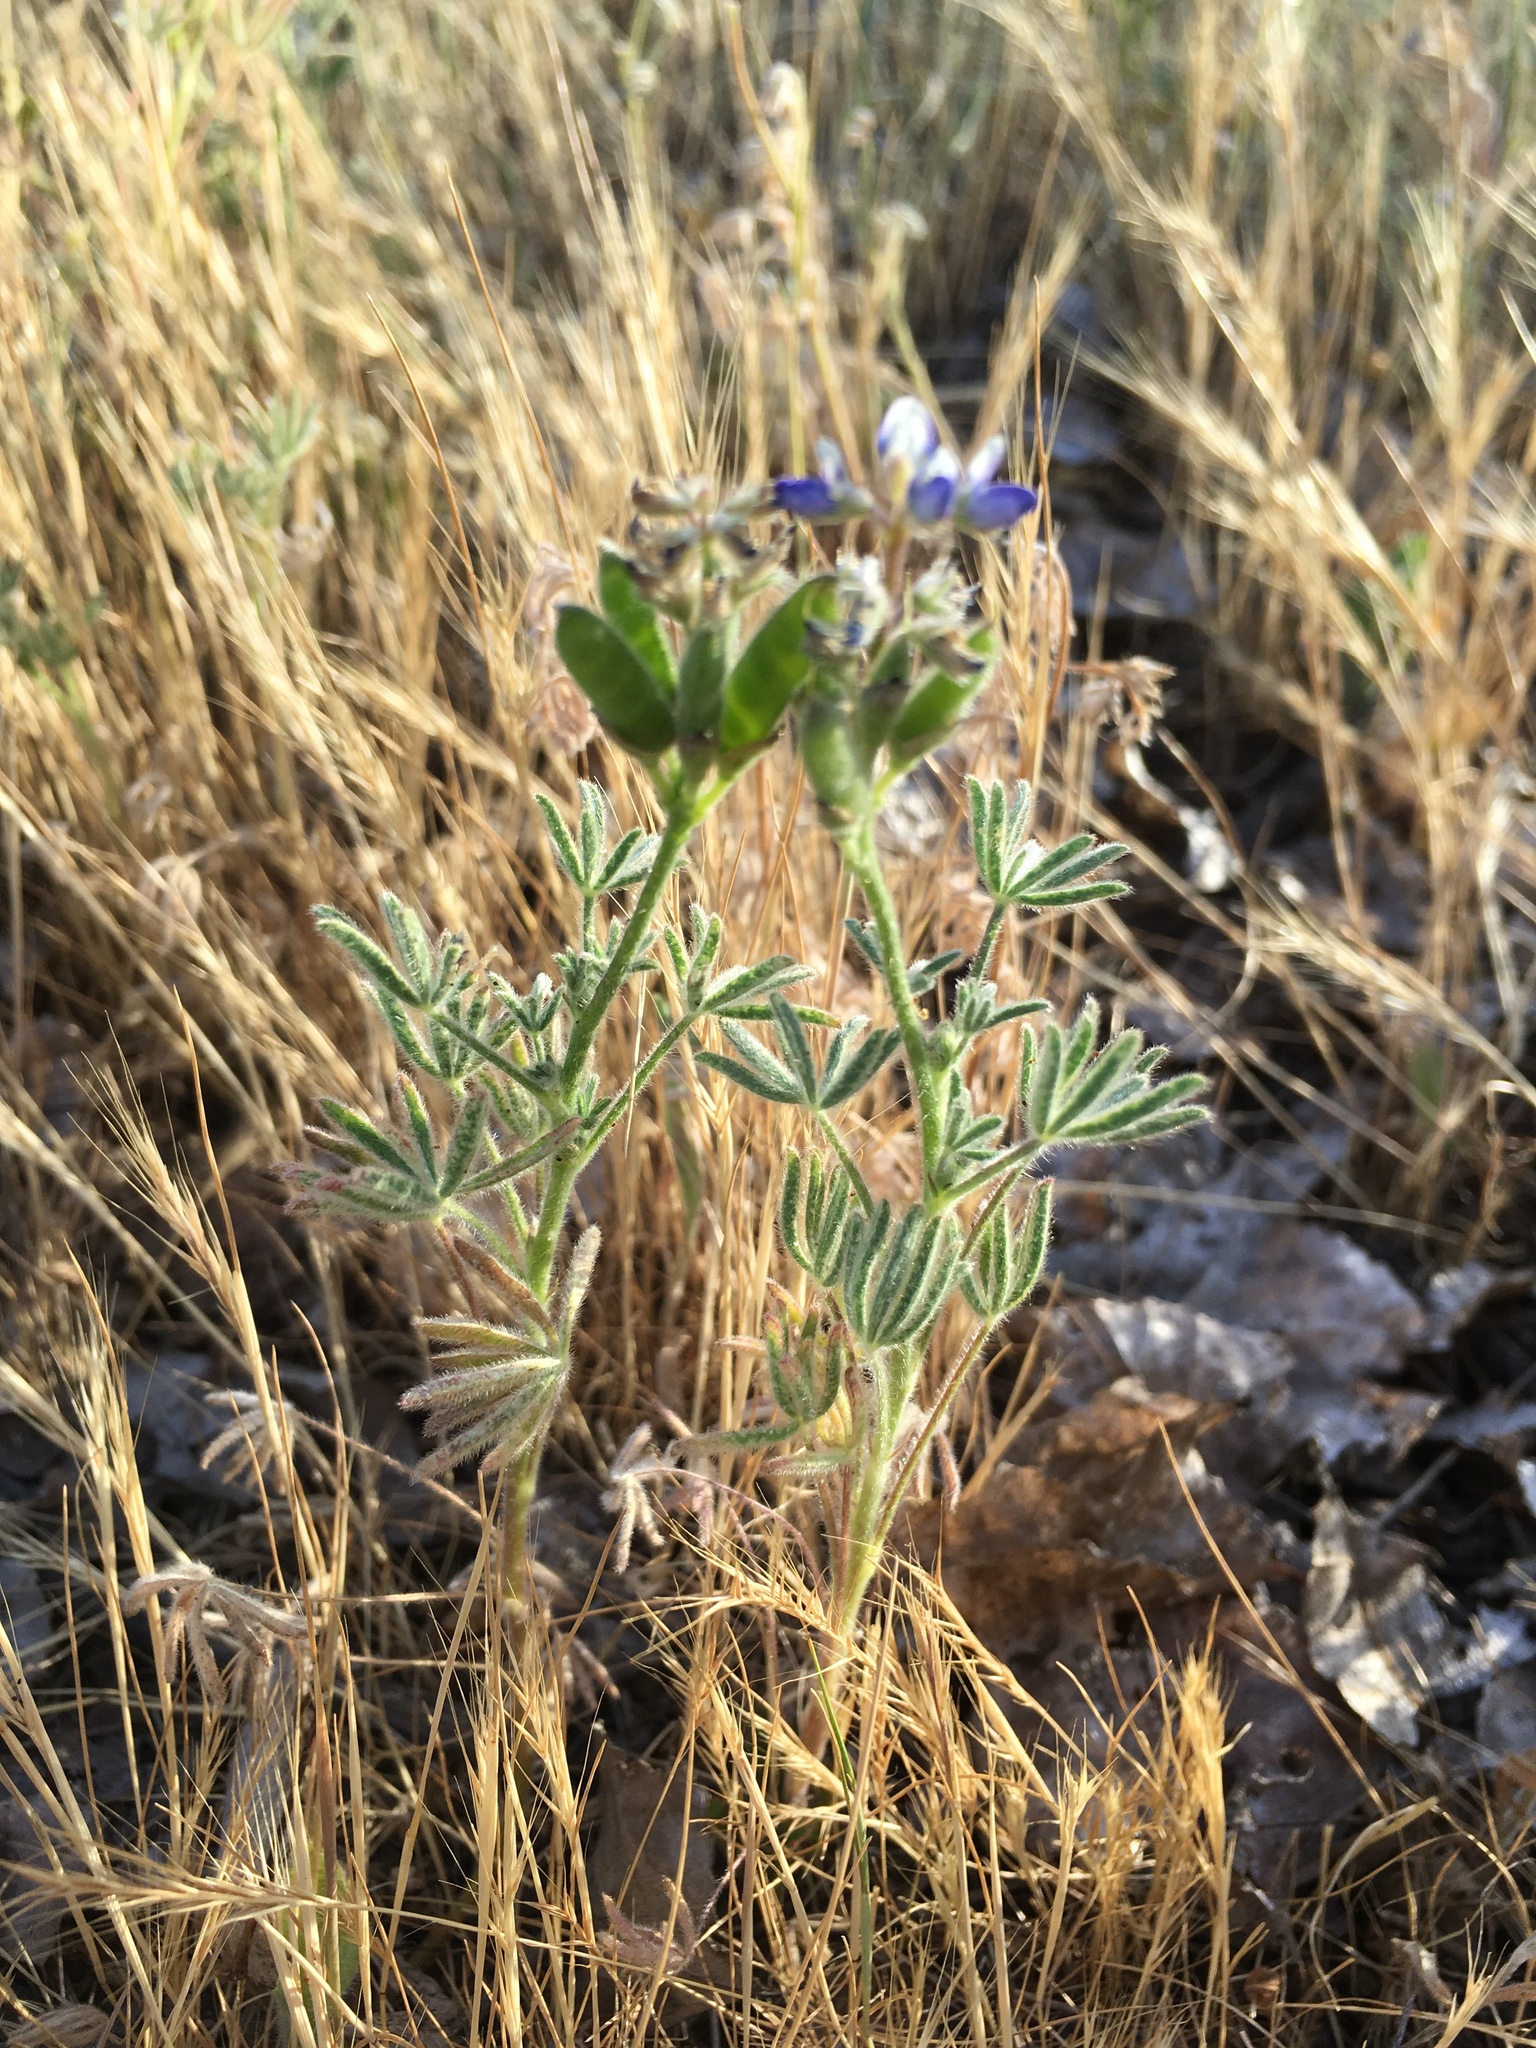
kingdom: Plantae
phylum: Tracheophyta
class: Magnoliopsida
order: Fabales
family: Fabaceae
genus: Lupinus
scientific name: Lupinus bicolor
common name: Miniature lupine
